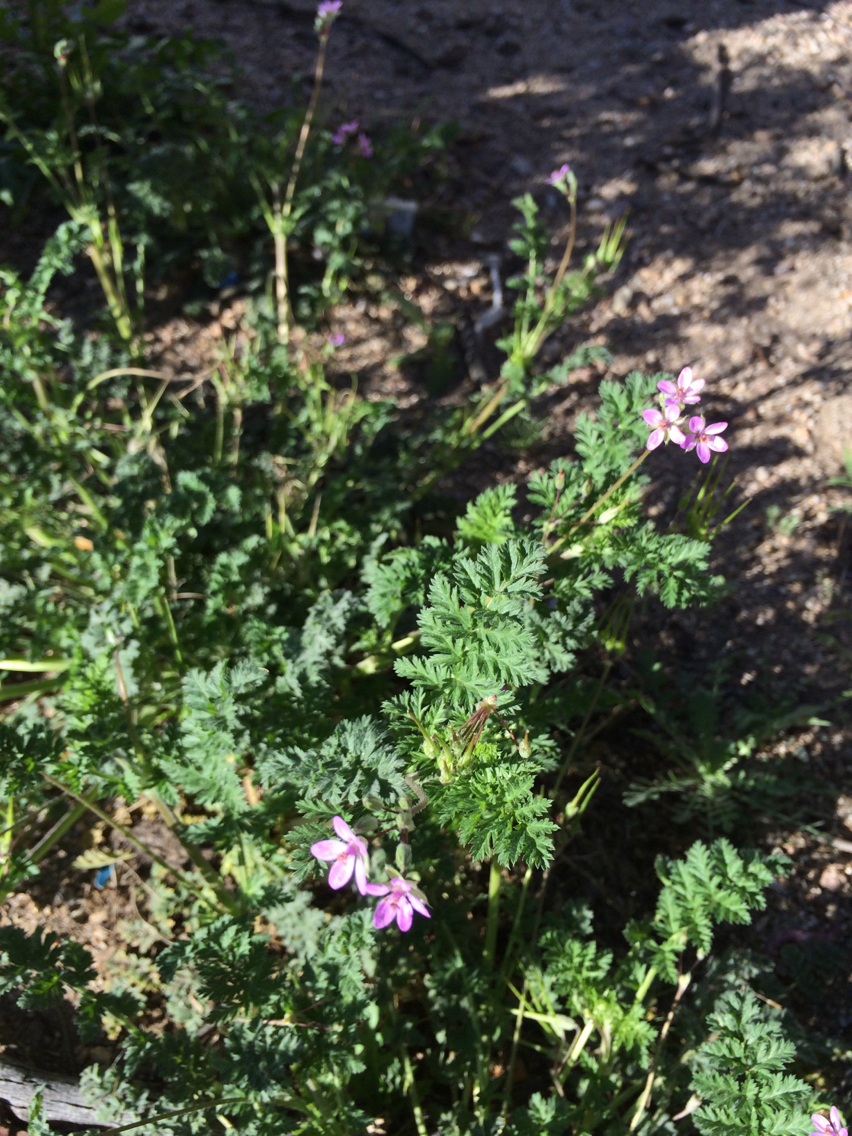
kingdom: Plantae
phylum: Tracheophyta
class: Magnoliopsida
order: Geraniales
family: Geraniaceae
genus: Erodium
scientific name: Erodium cicutarium
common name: Common stork's-bill
